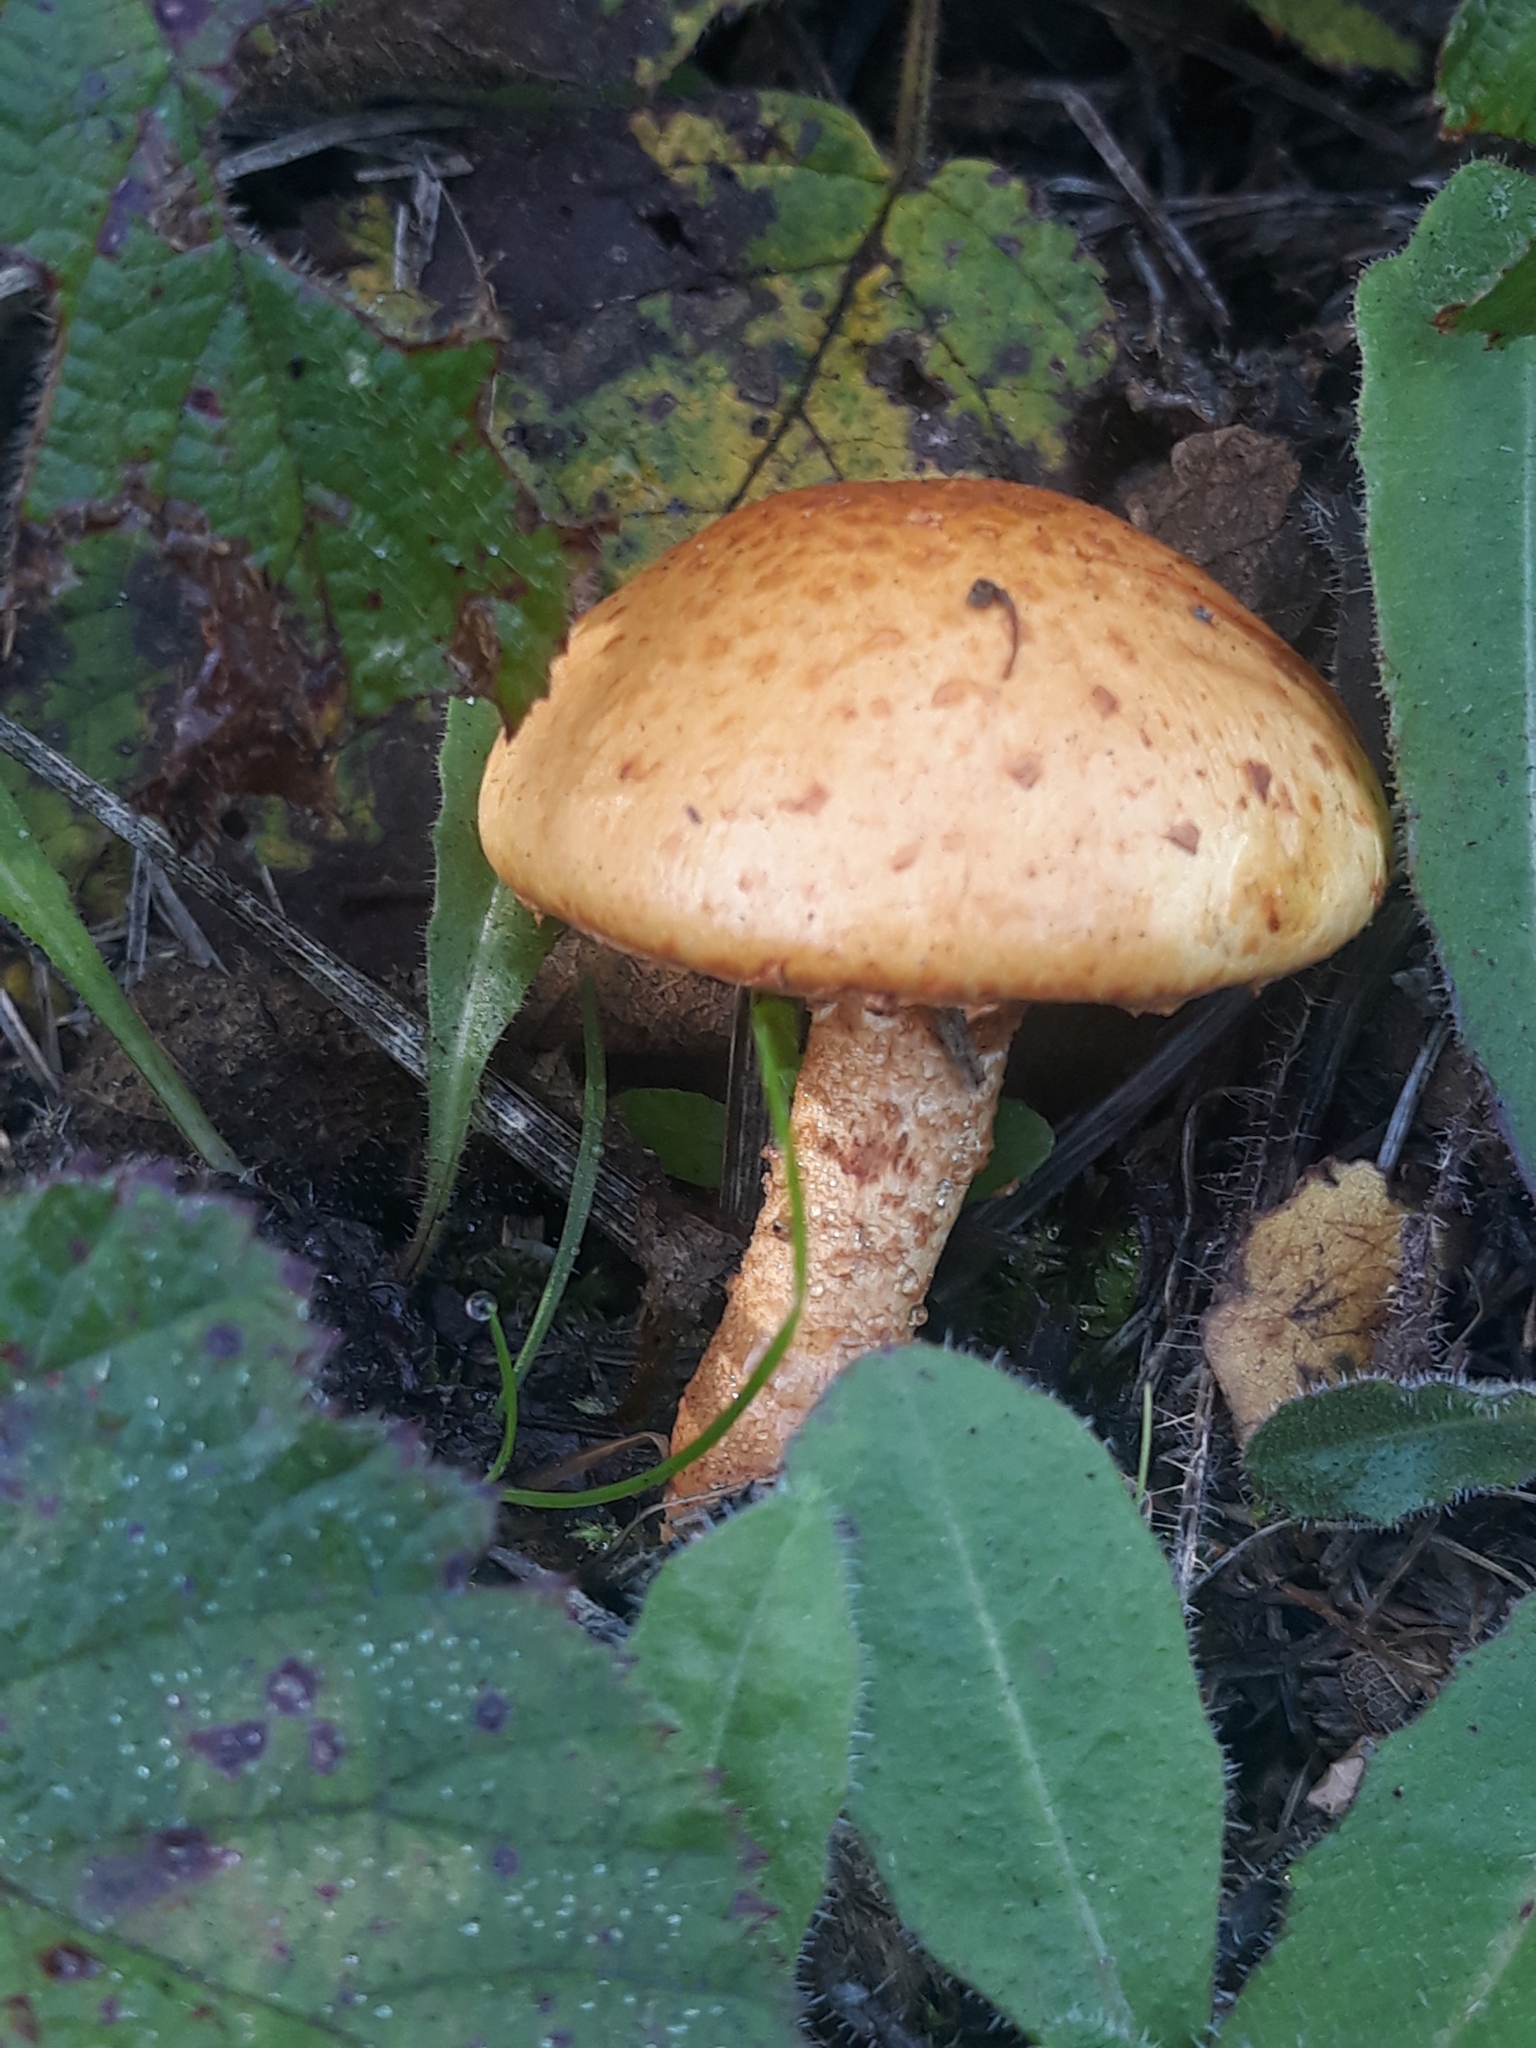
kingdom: Fungi
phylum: Basidiomycota
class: Agaricomycetes
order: Agaricales
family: Strophariaceae
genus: Pholiota
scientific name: Pholiota squarrosa
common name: Shaggy pholiota
